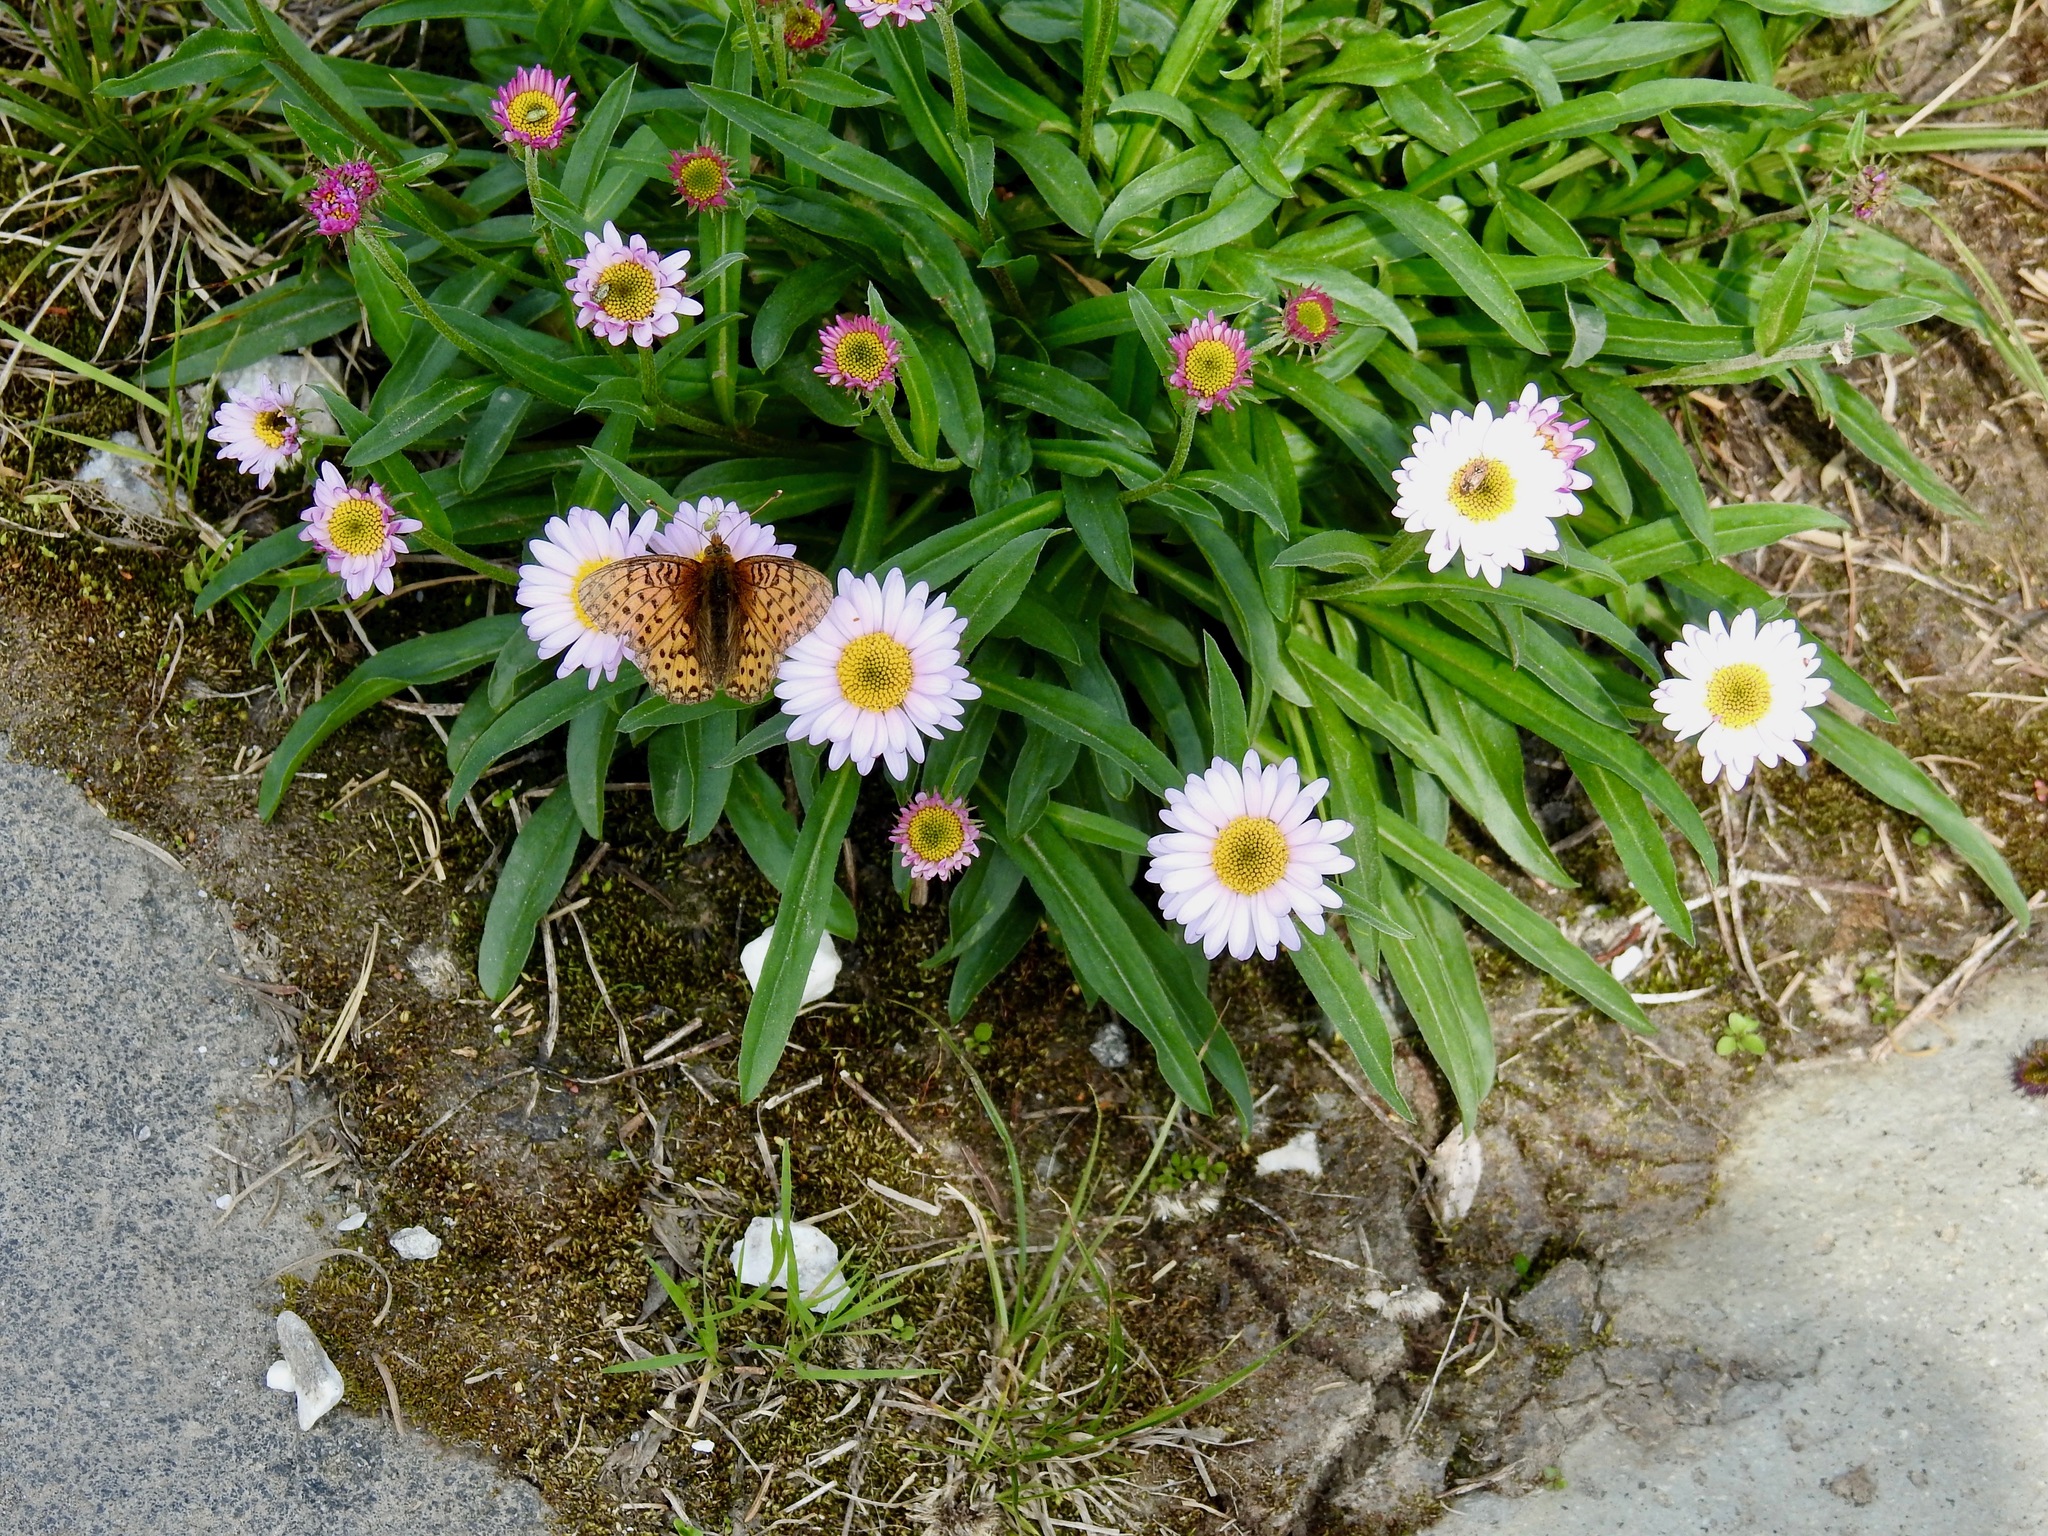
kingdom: Plantae
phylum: Tracheophyta
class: Magnoliopsida
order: Asterales
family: Asteraceae
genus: Erigeron
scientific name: Erigeron glacialis
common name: Subalpine fleabane
